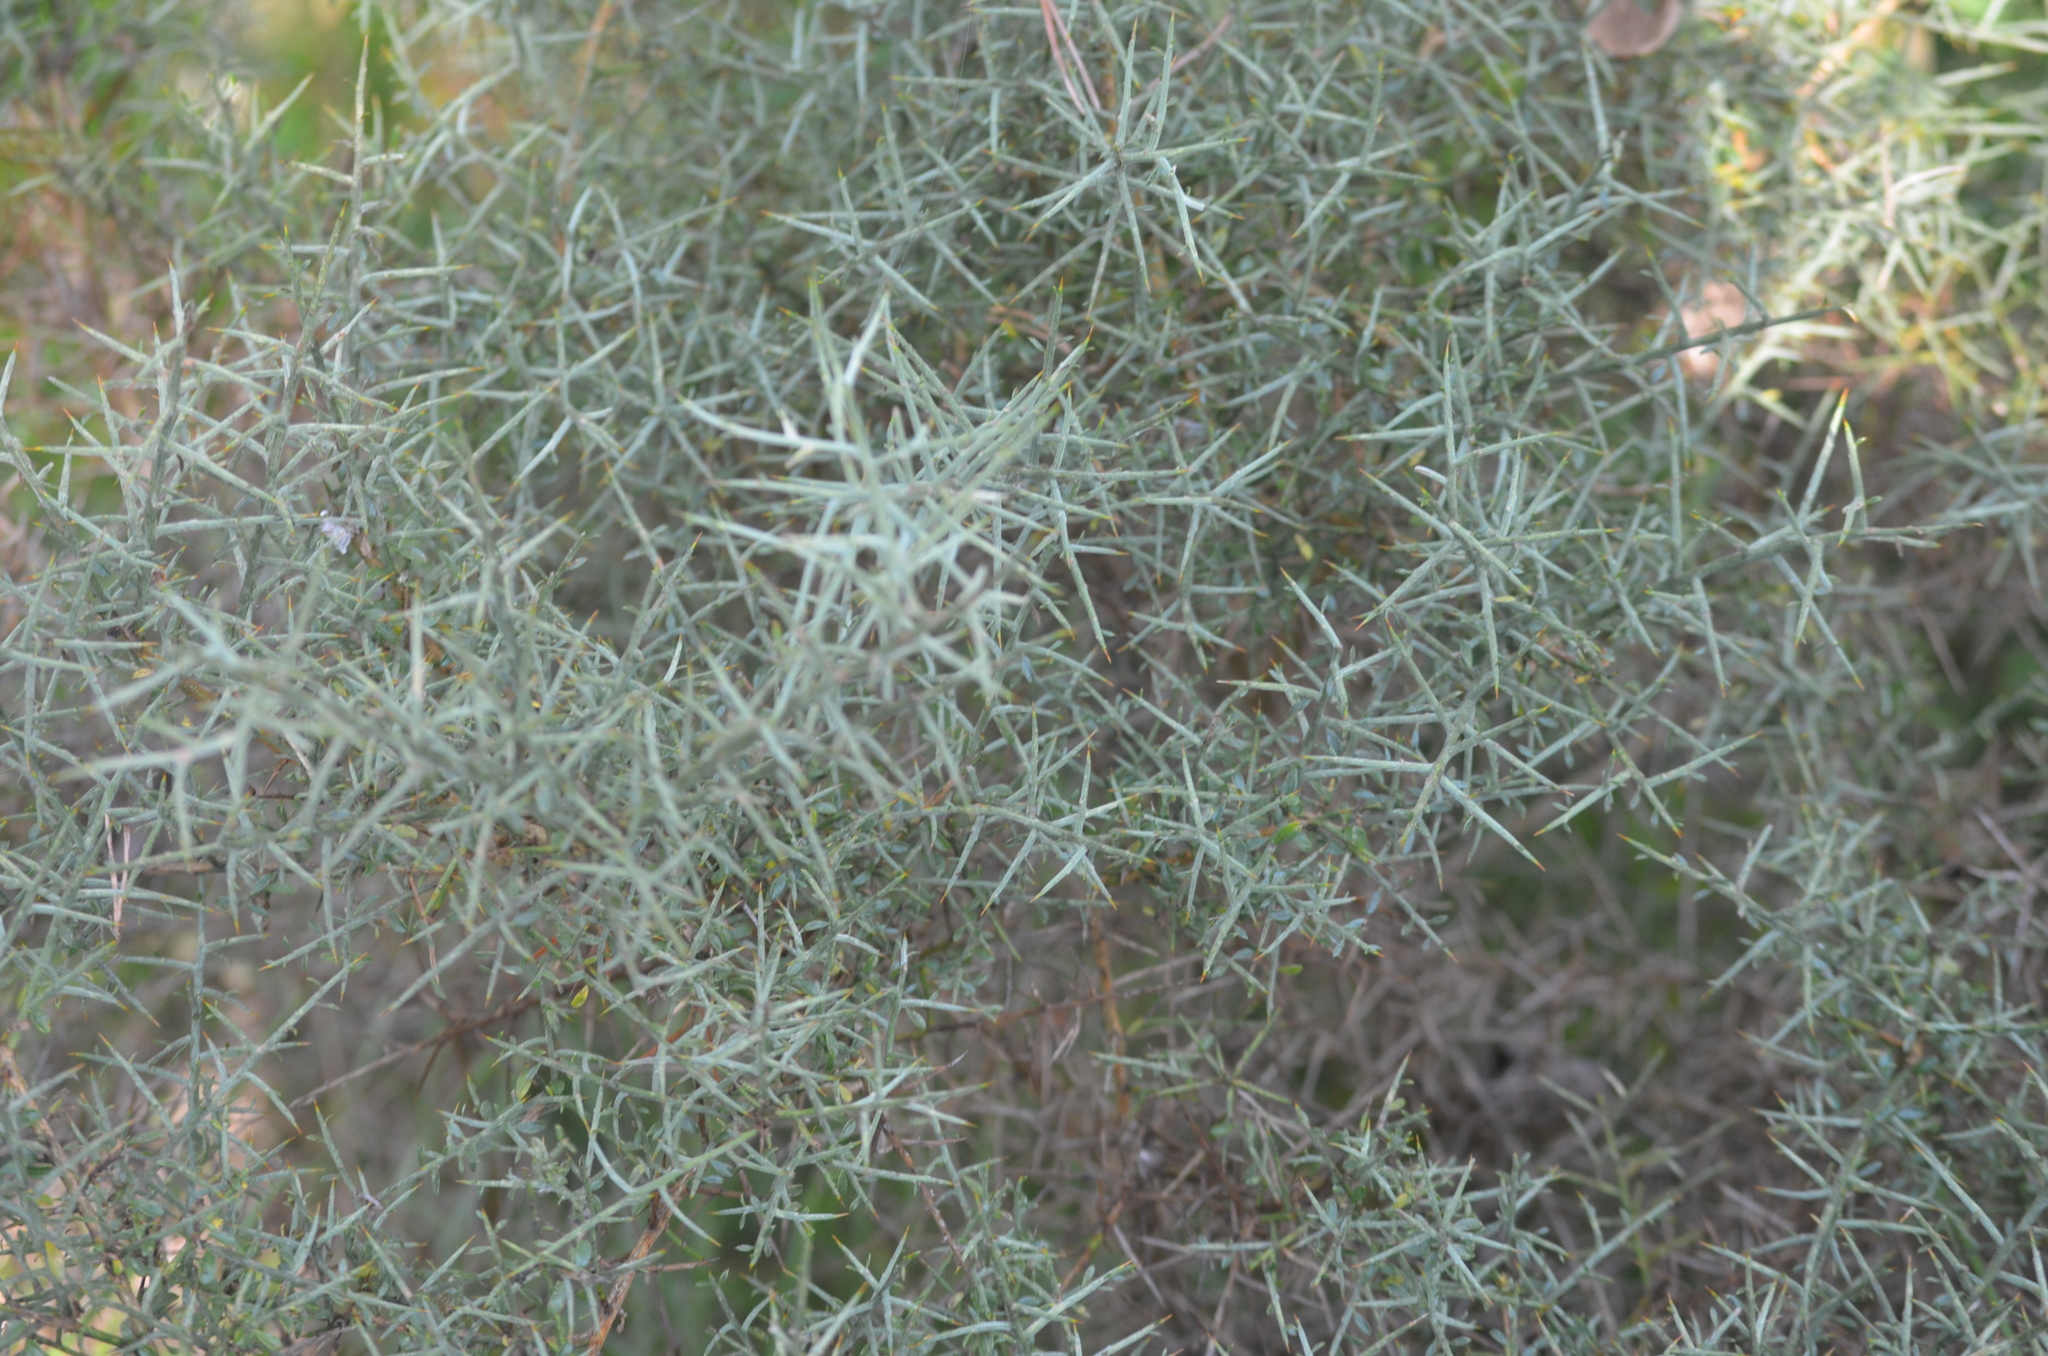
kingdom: Plantae
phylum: Tracheophyta
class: Magnoliopsida
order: Fabales
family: Fabaceae
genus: Genista
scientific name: Genista scorpius
